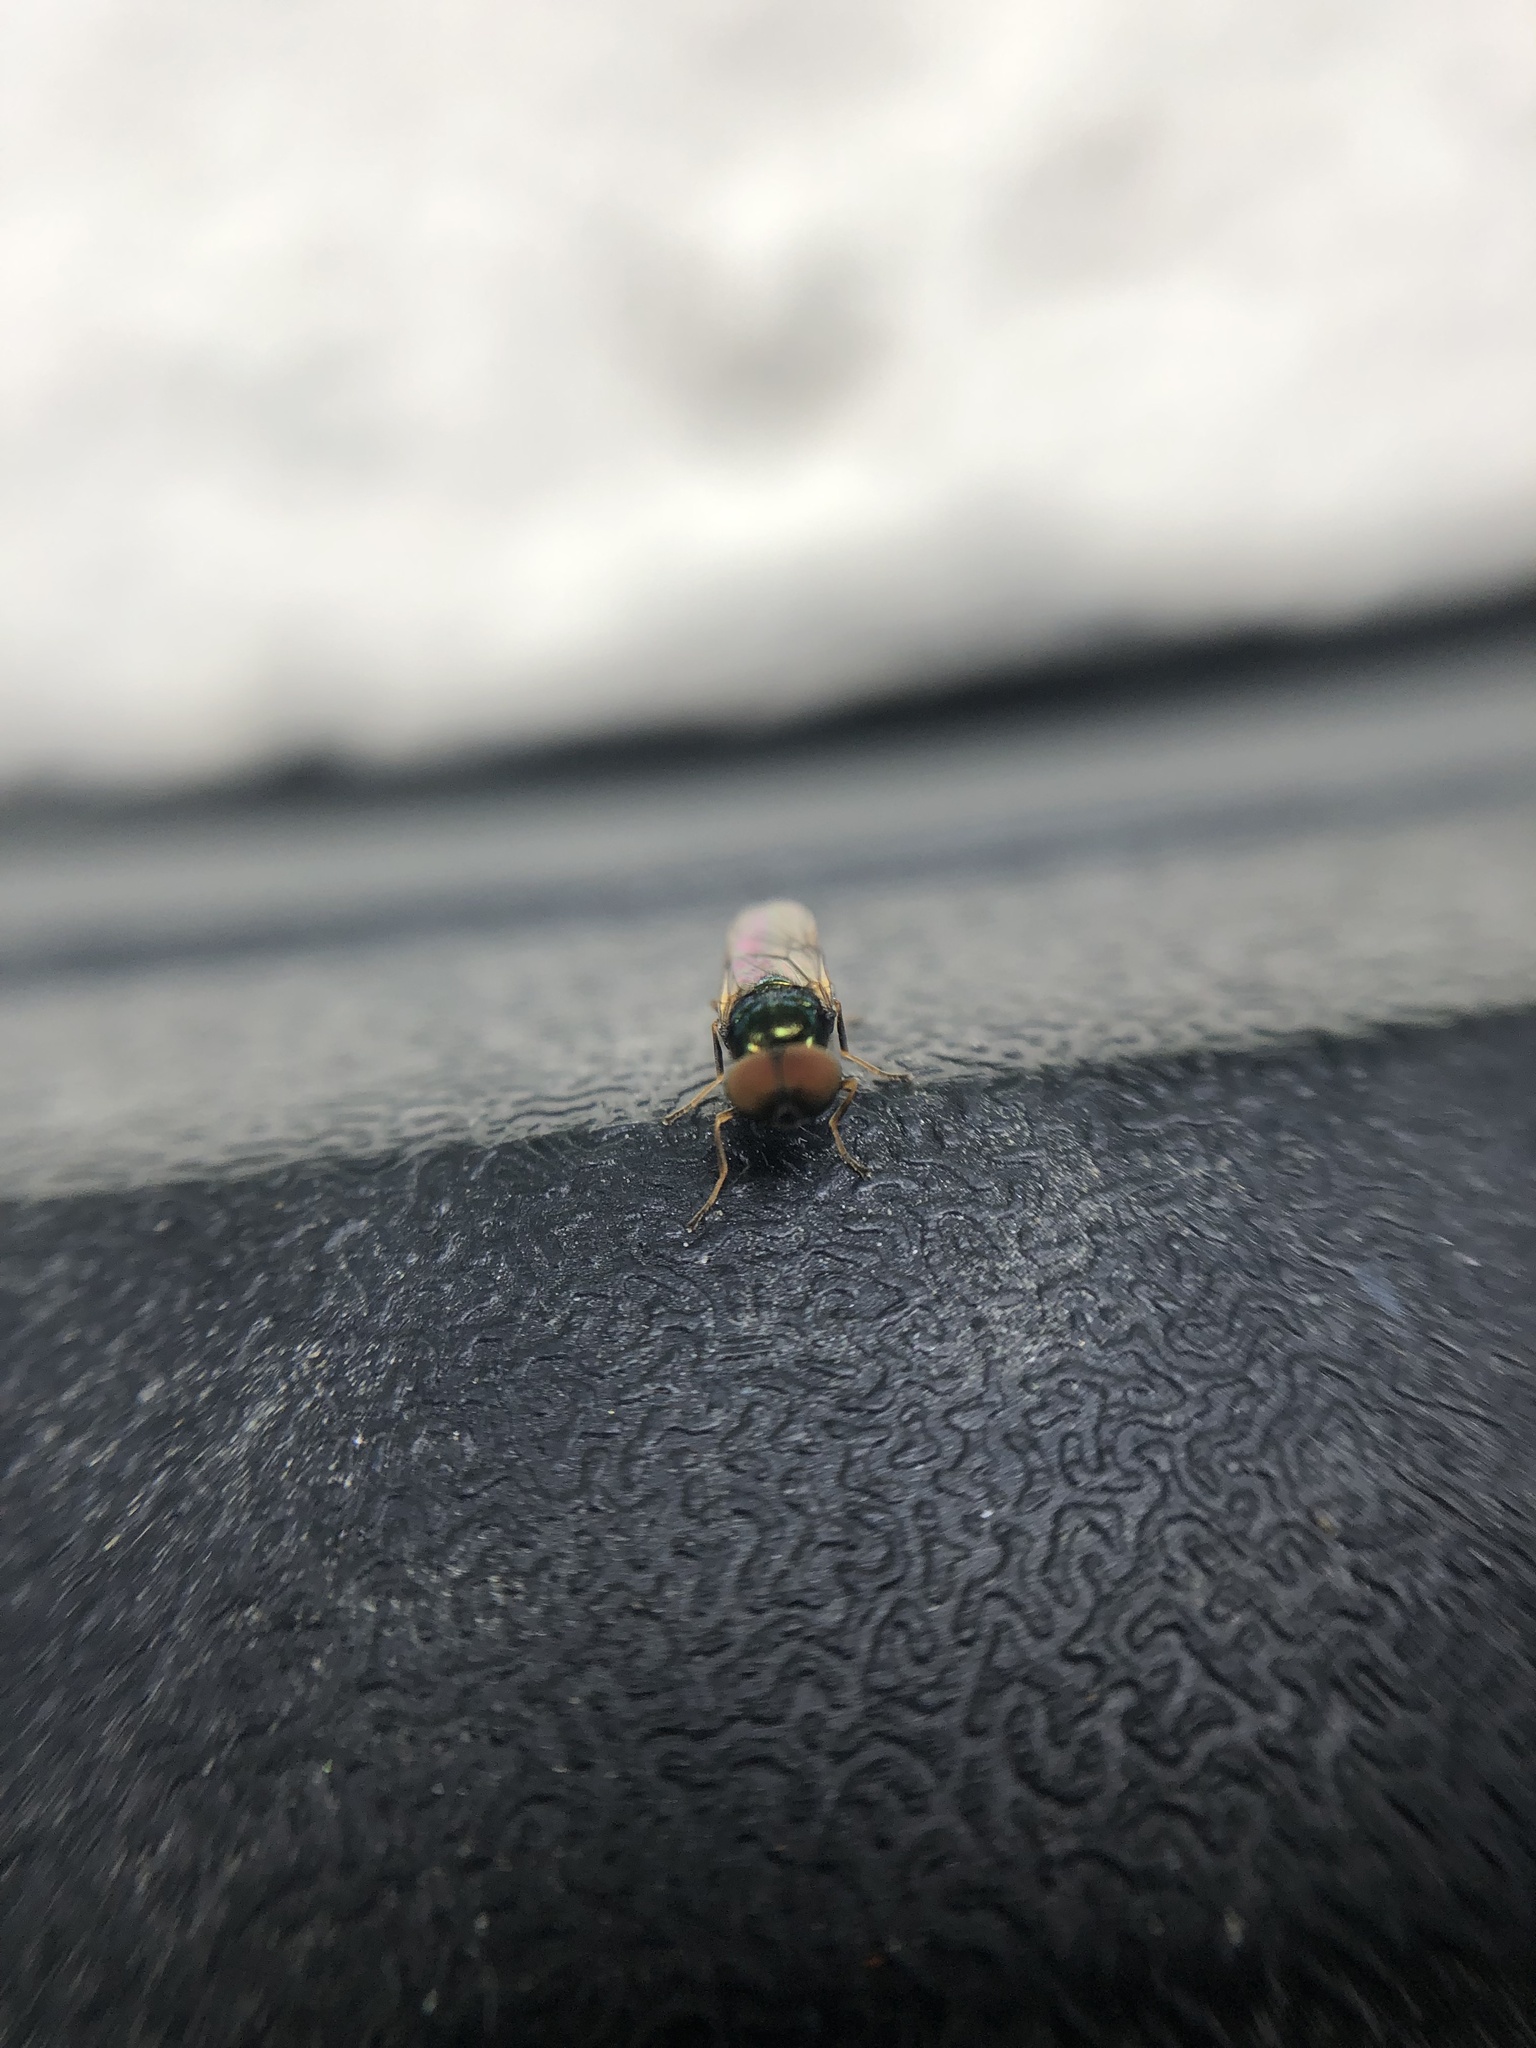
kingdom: Animalia
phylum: Arthropoda
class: Insecta
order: Diptera
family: Stratiomyidae
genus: Microchrysa
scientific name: Microchrysa polita
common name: Black-horned gem
